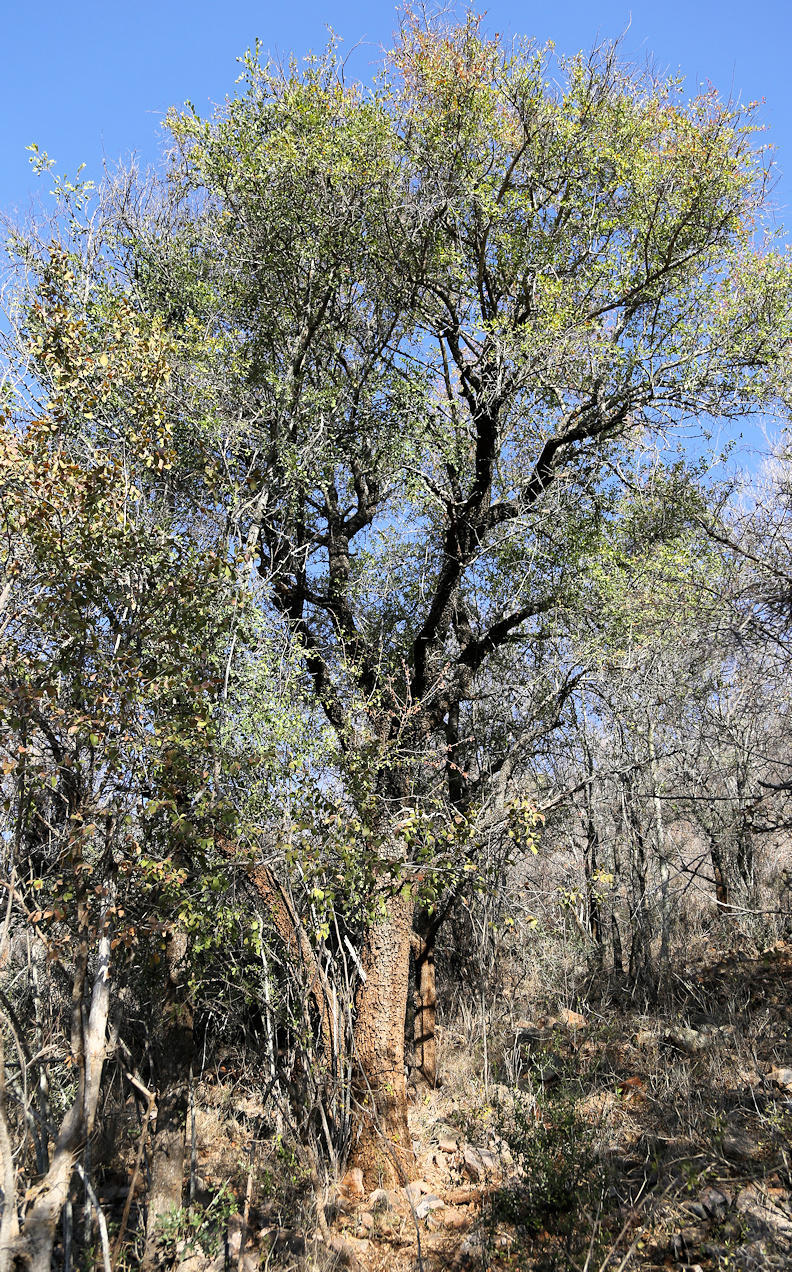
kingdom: Plantae
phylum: Tracheophyta
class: Magnoliopsida
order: Malpighiales
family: Euphorbiaceae
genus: Spirostachys
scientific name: Spirostachys africana
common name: Tamboti
